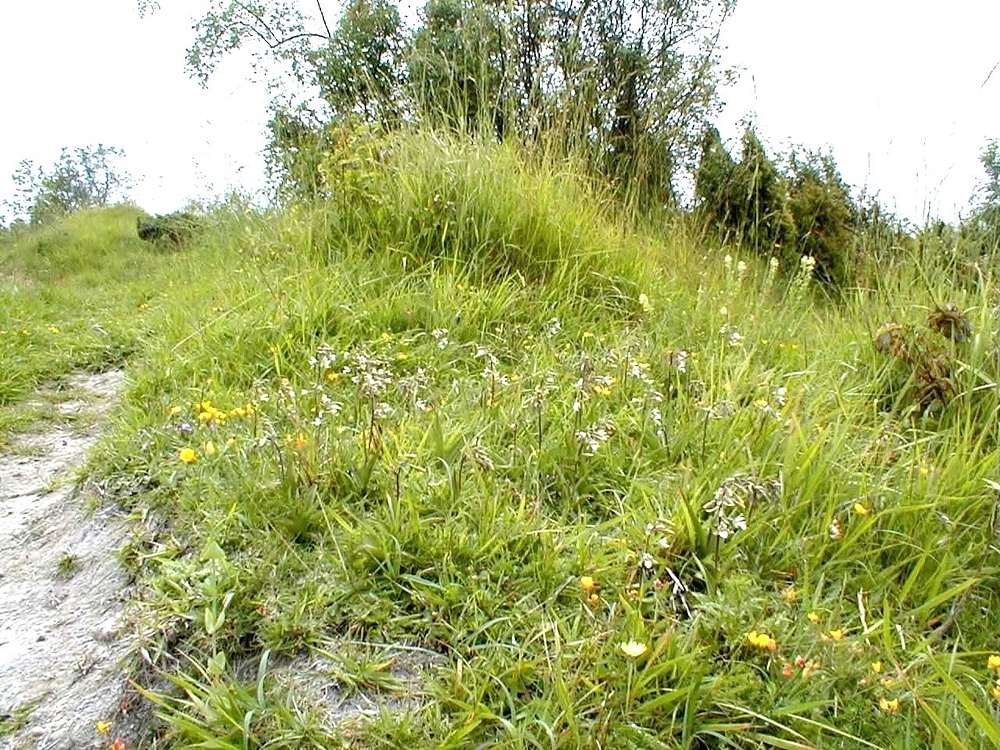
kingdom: Plantae
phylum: Tracheophyta
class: Liliopsida
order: Asparagales
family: Orchidaceae
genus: Epipactis
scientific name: Epipactis palustris
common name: Marsh helleborine
